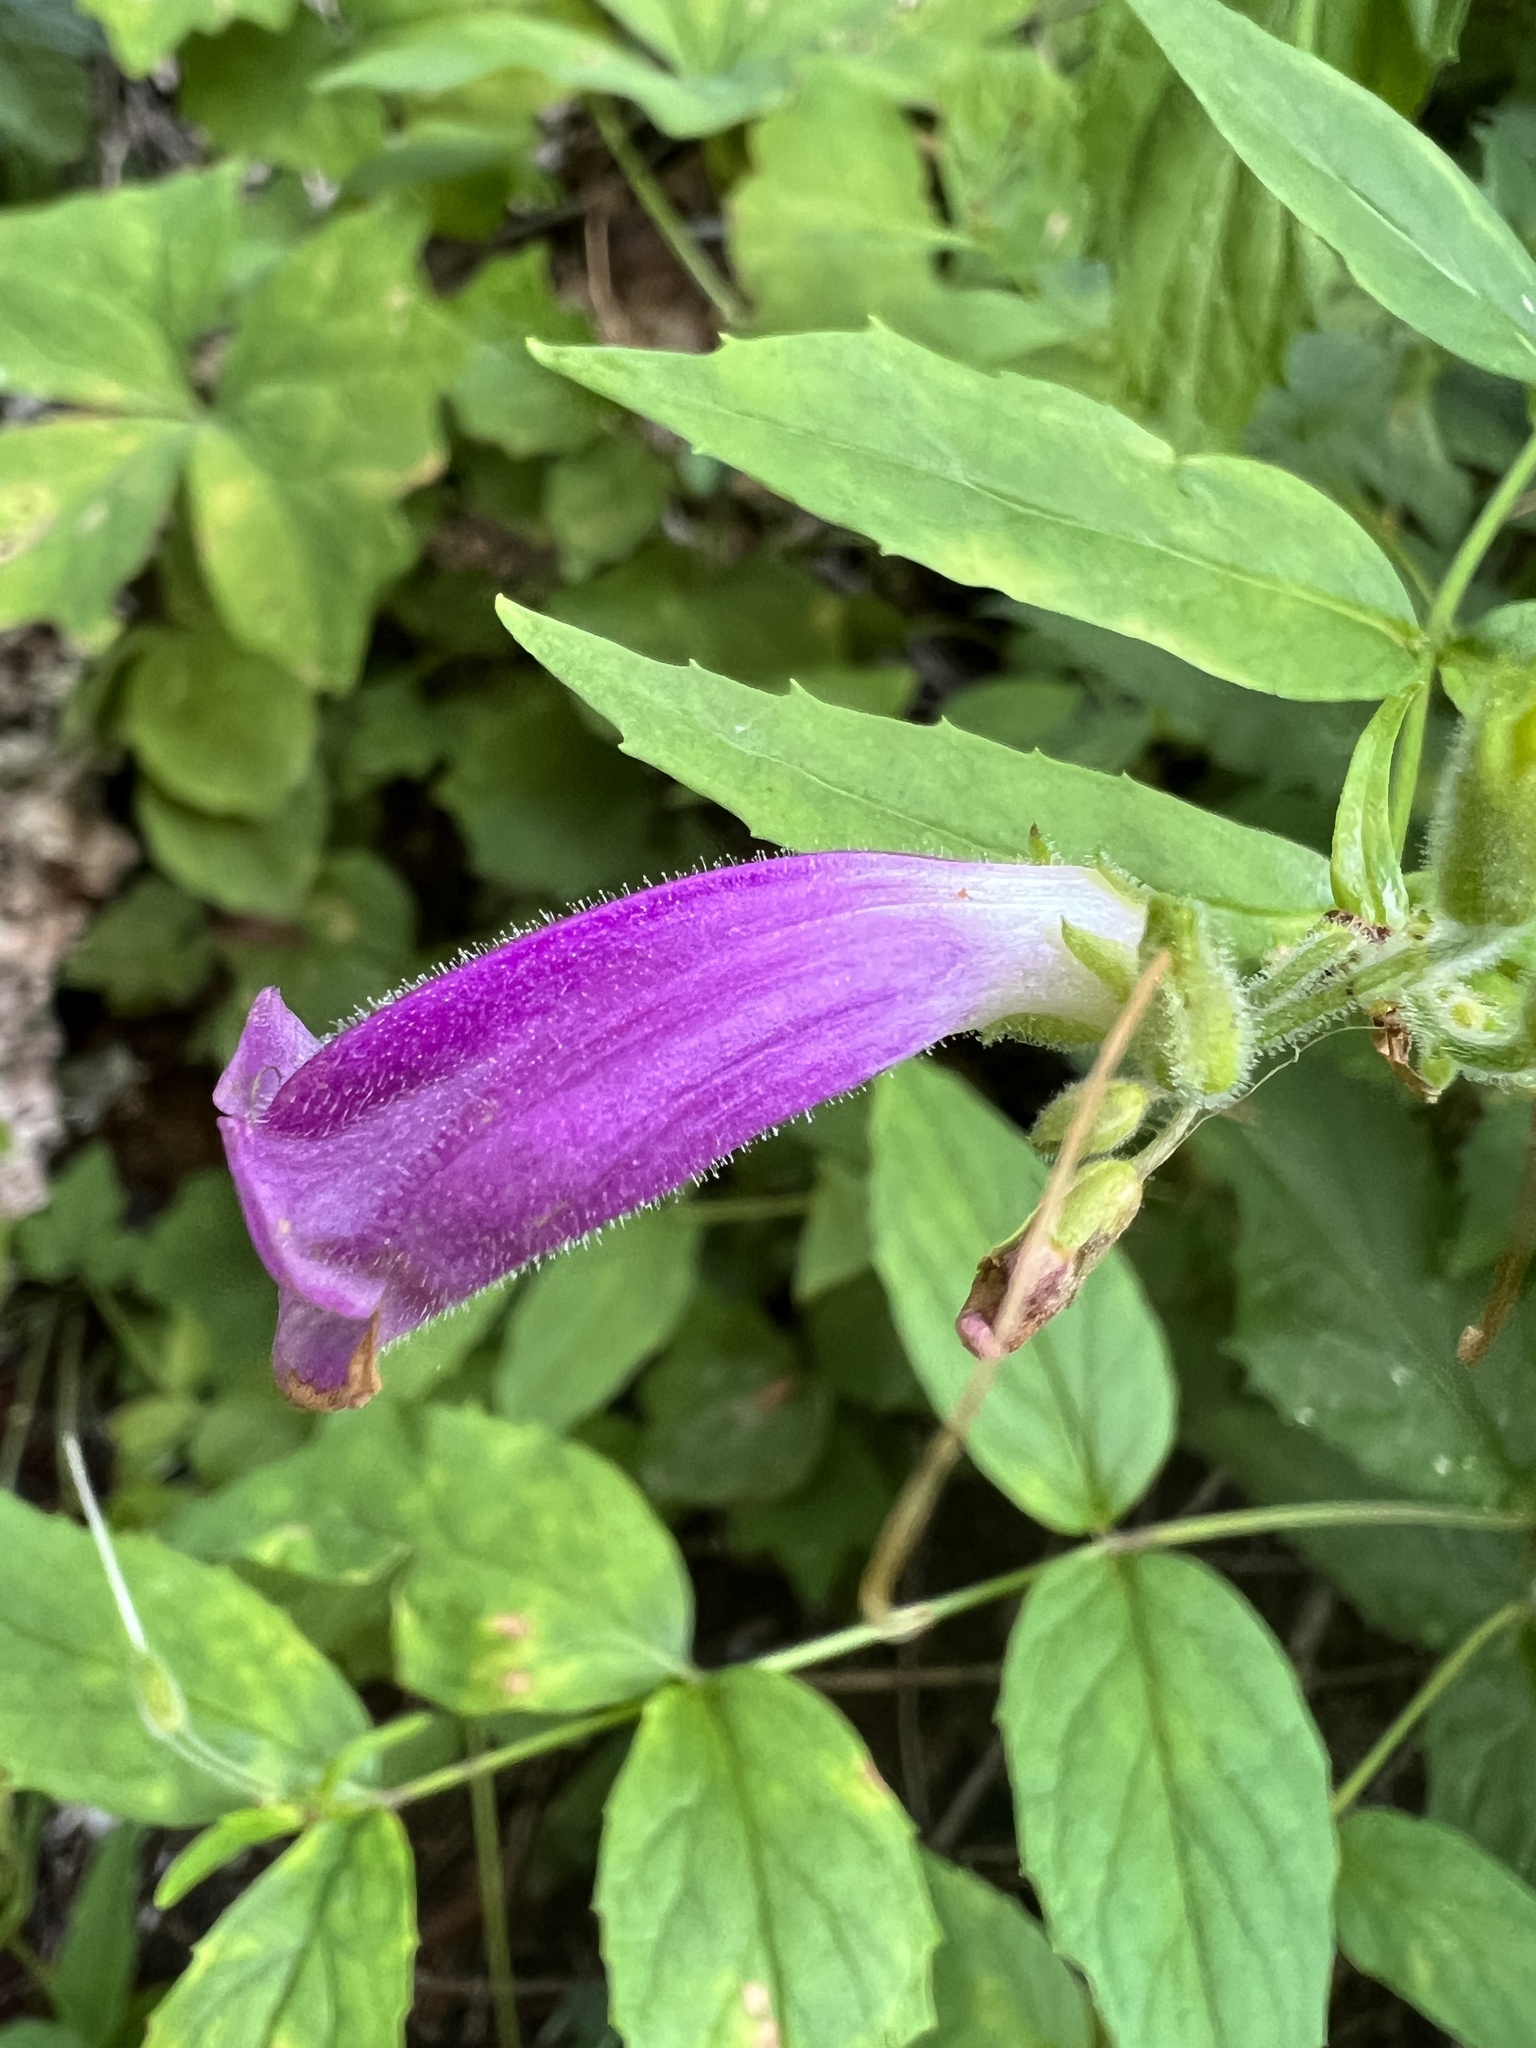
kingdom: Plantae
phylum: Tracheophyta
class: Magnoliopsida
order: Lamiales
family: Plantaginaceae
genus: Nothochelone
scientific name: Nothochelone nemorosa
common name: Woodland beardtongue
